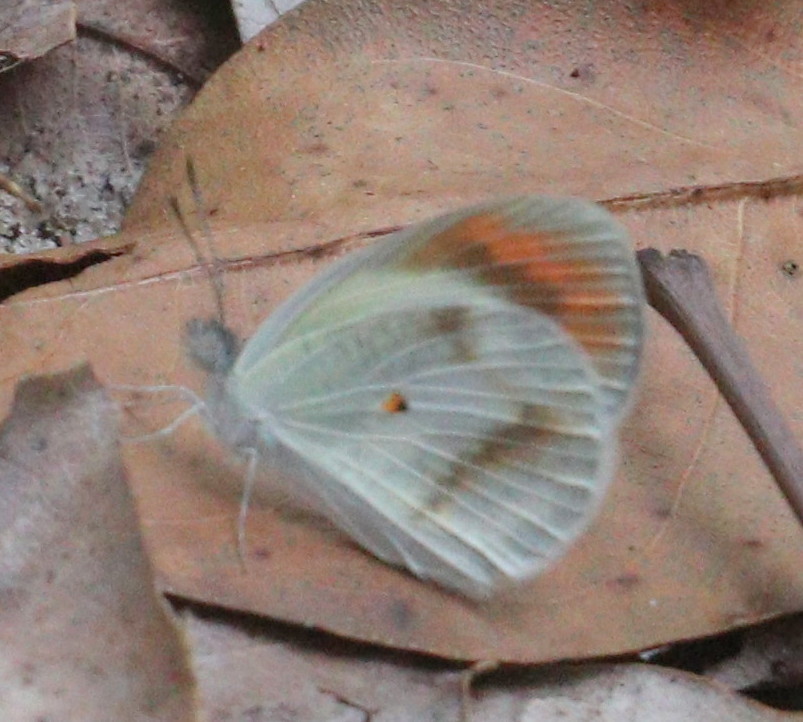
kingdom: Animalia
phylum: Arthropoda
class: Insecta
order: Lepidoptera
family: Pieridae
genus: Colotis
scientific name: Colotis euippe
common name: Round-winged orange tip
